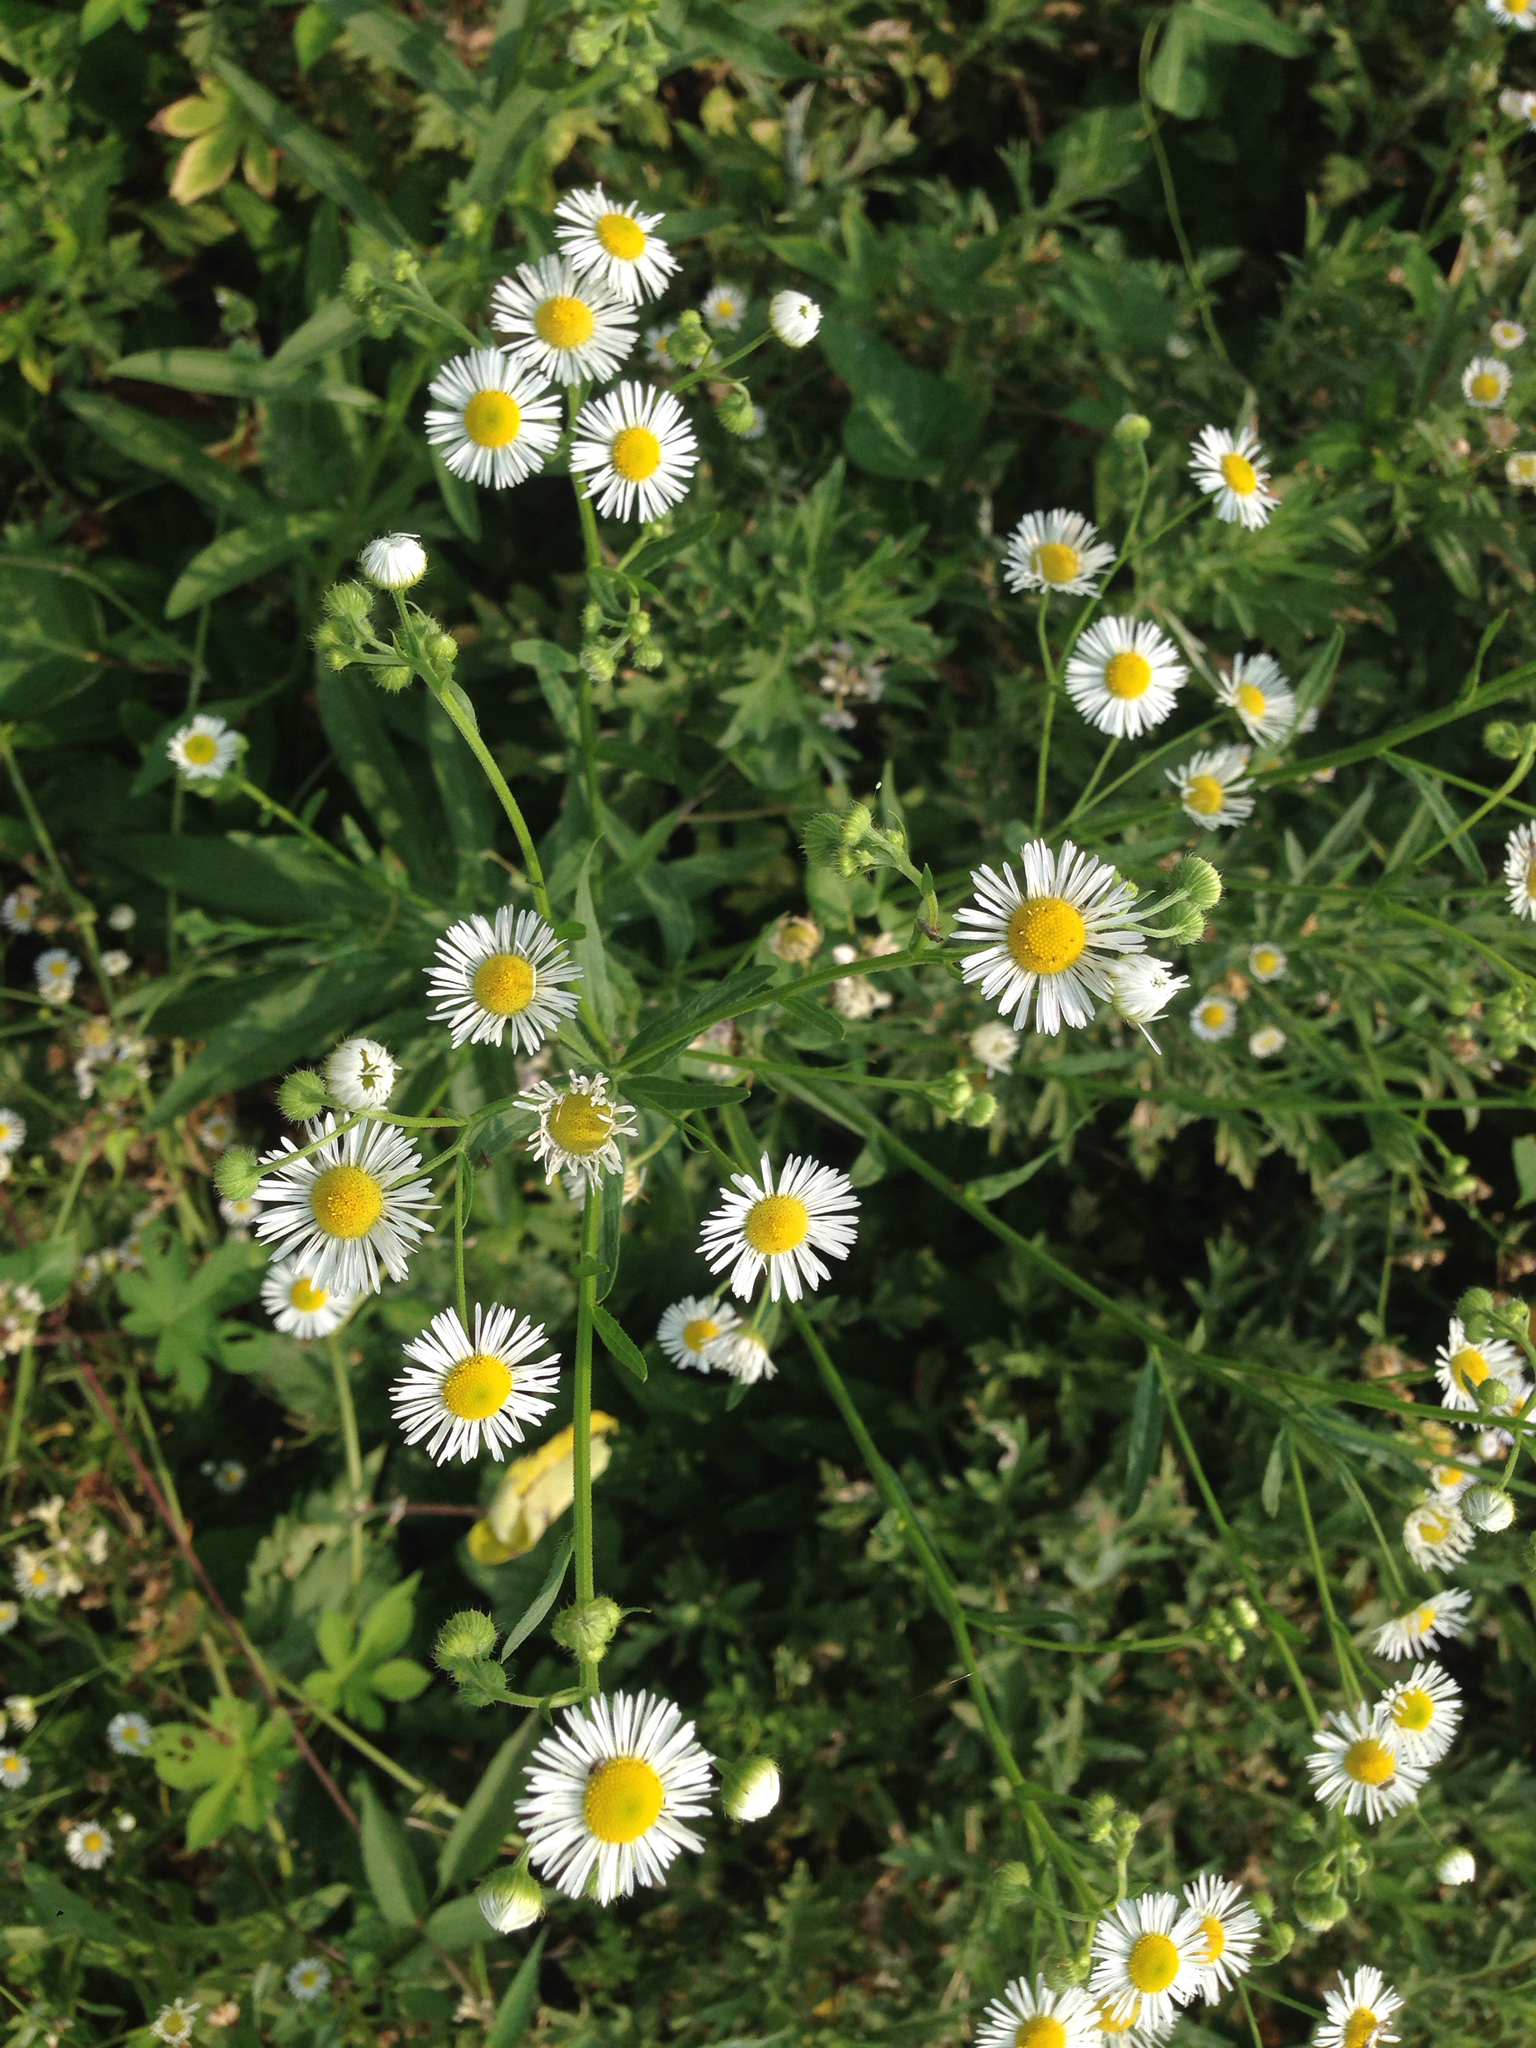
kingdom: Plantae
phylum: Tracheophyta
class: Magnoliopsida
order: Asterales
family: Asteraceae
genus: Erigeron
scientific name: Erigeron annuus
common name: Tall fleabane
